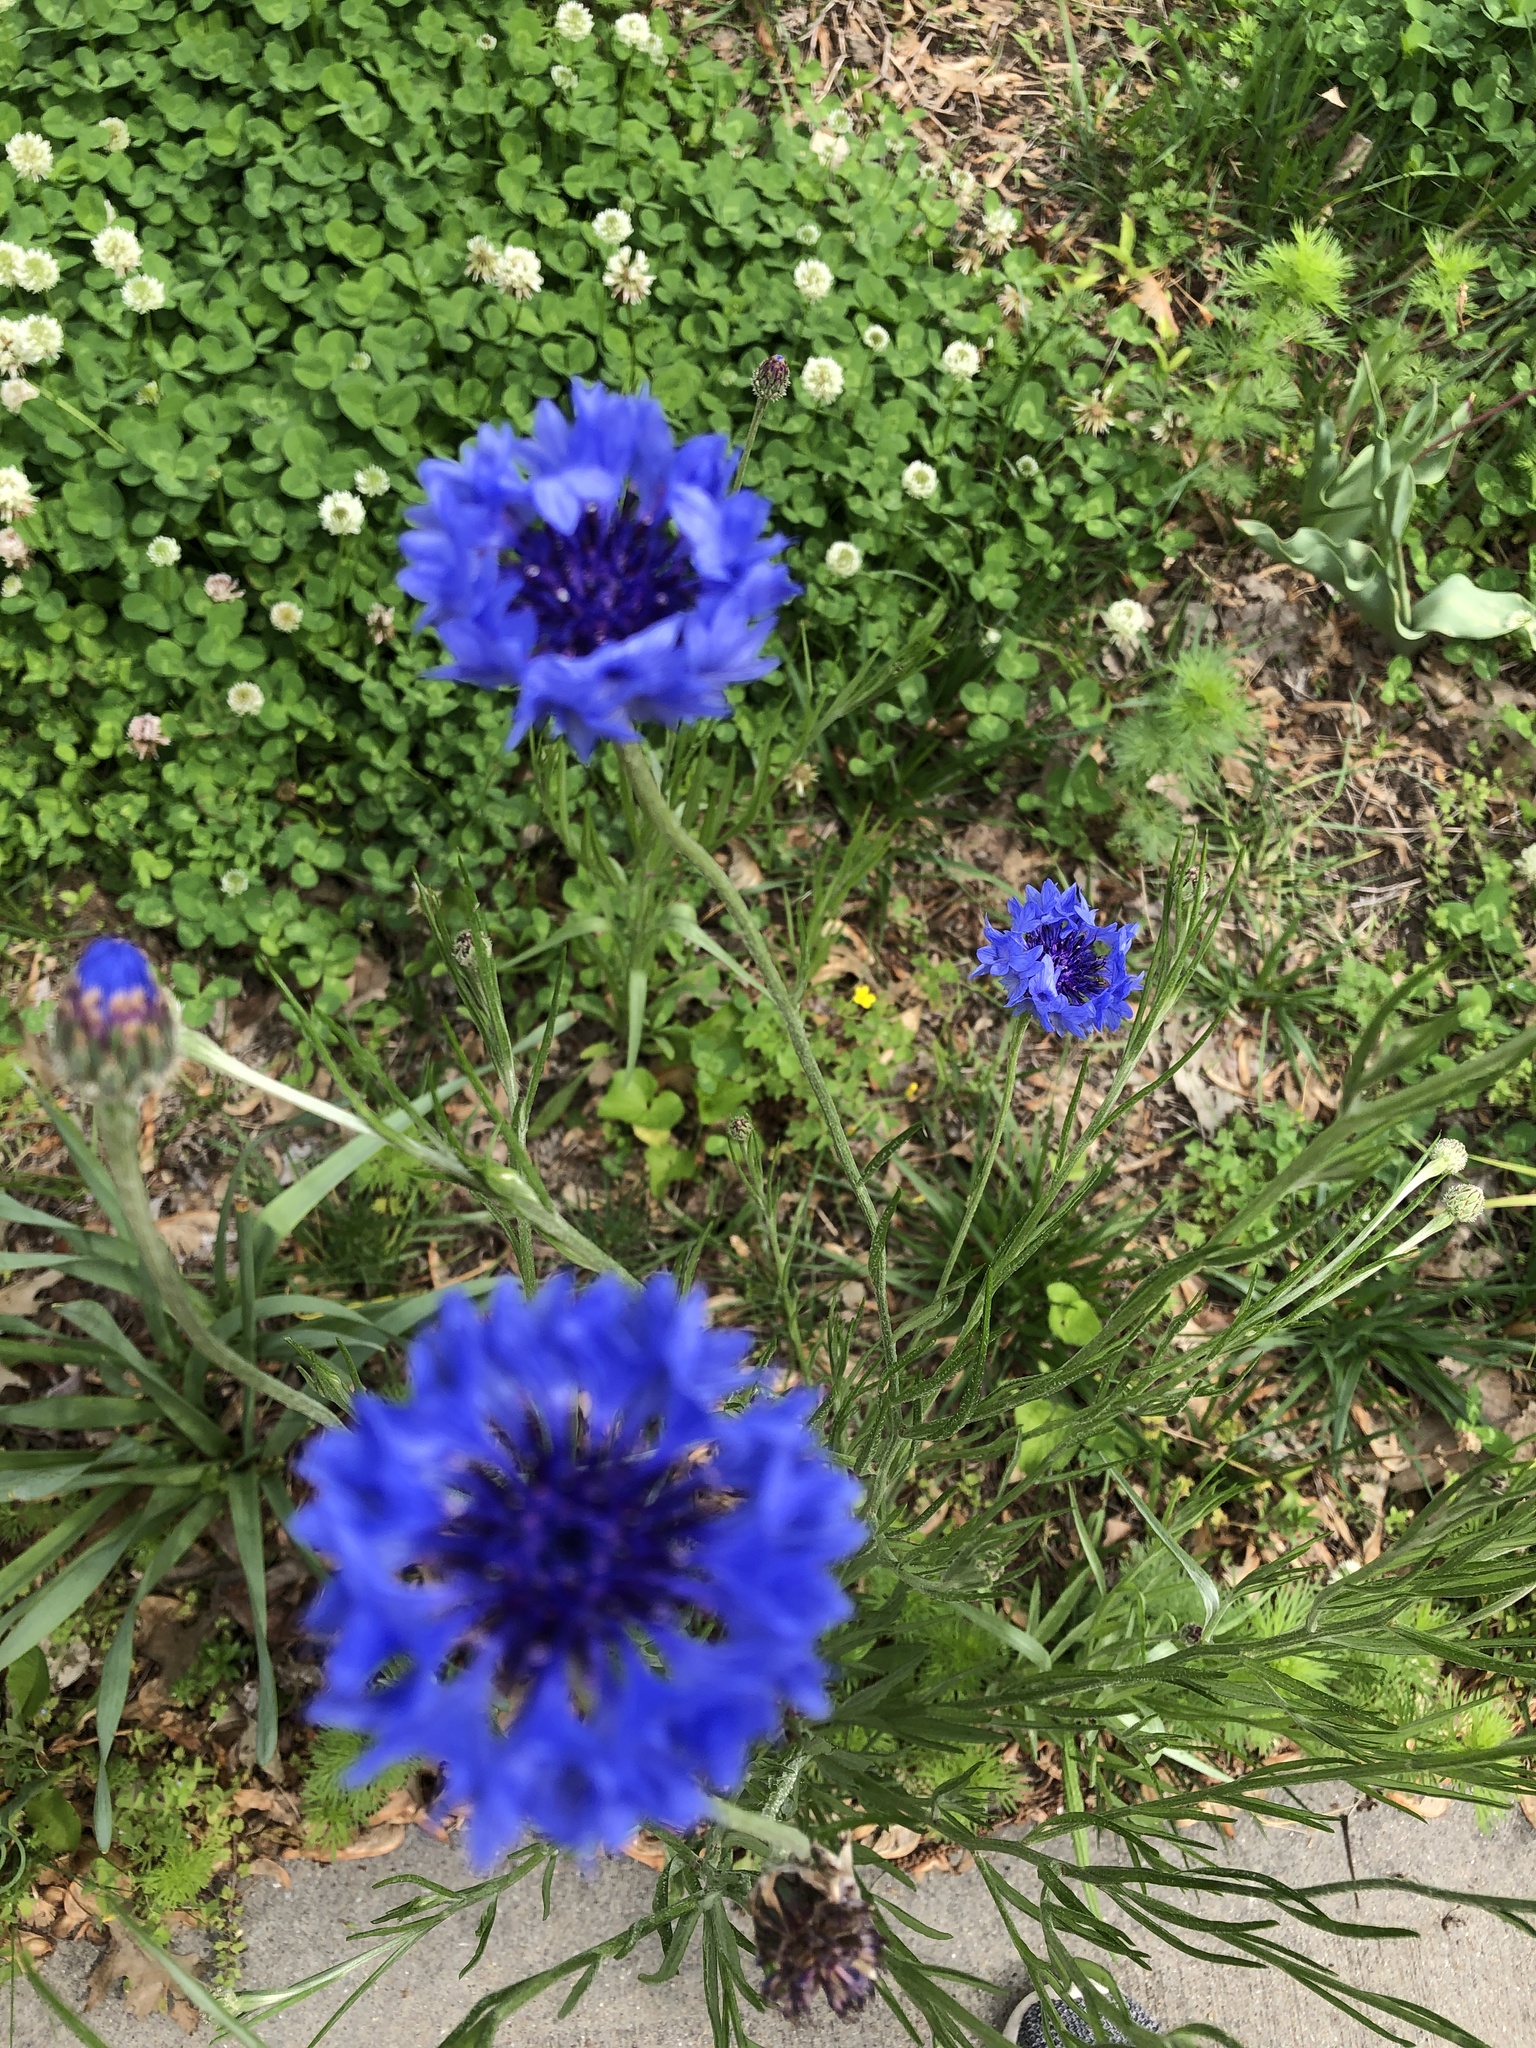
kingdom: Plantae
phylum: Tracheophyta
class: Magnoliopsida
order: Asterales
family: Asteraceae
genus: Centaurea
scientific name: Centaurea cyanus
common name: Cornflower
